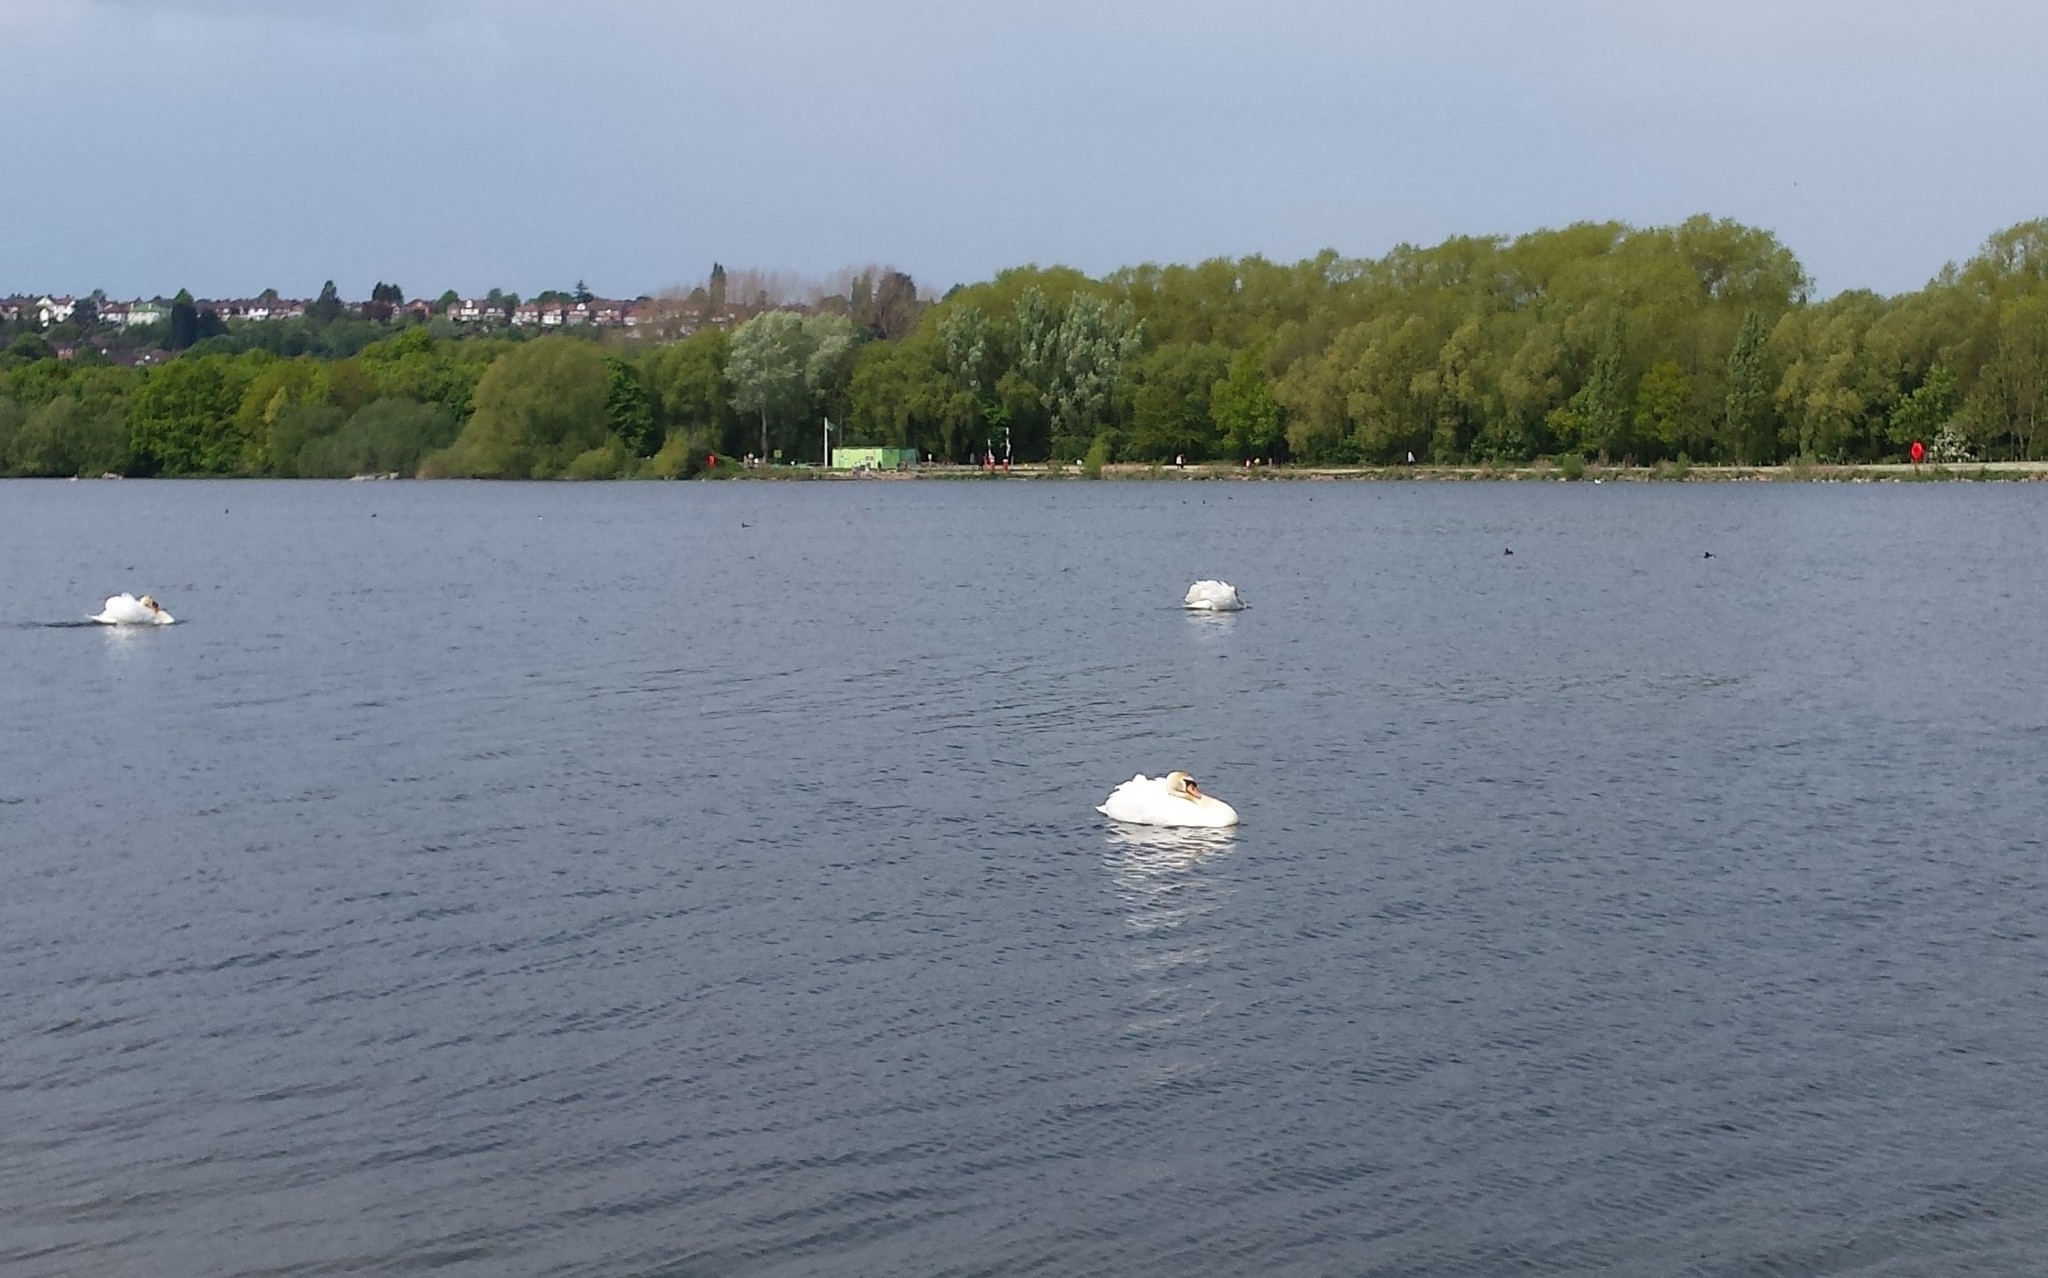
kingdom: Animalia
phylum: Chordata
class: Aves
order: Anseriformes
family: Anatidae
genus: Cygnus
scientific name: Cygnus olor
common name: Mute swan
